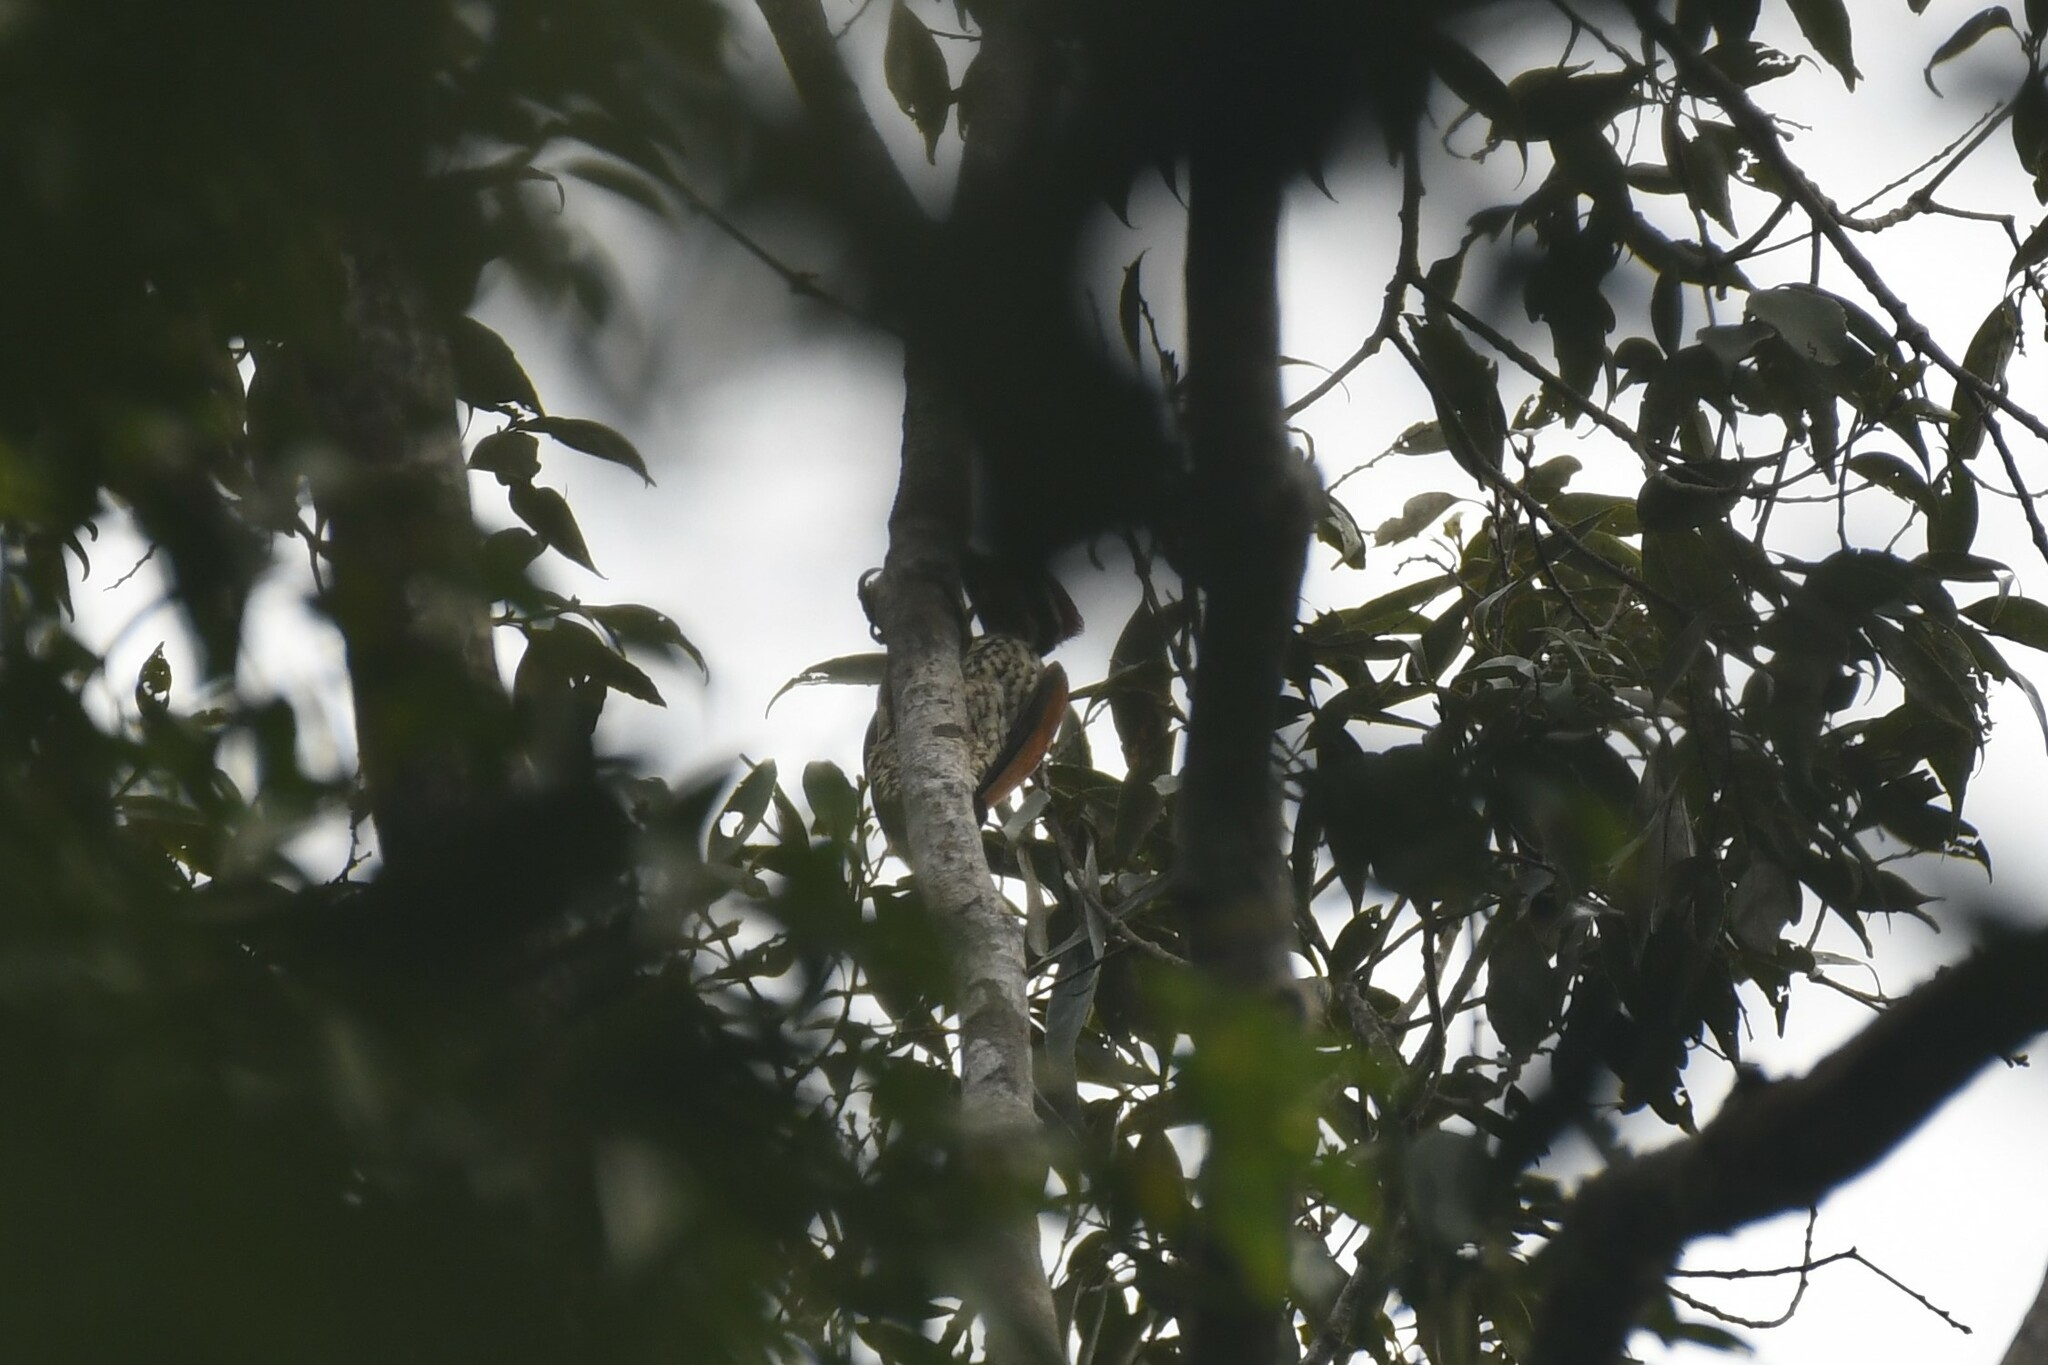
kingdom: Animalia
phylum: Chordata
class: Aves
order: Piciformes
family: Picidae
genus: Chrysocolaptes
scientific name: Chrysocolaptes guttacristatus
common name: Greater flameback
